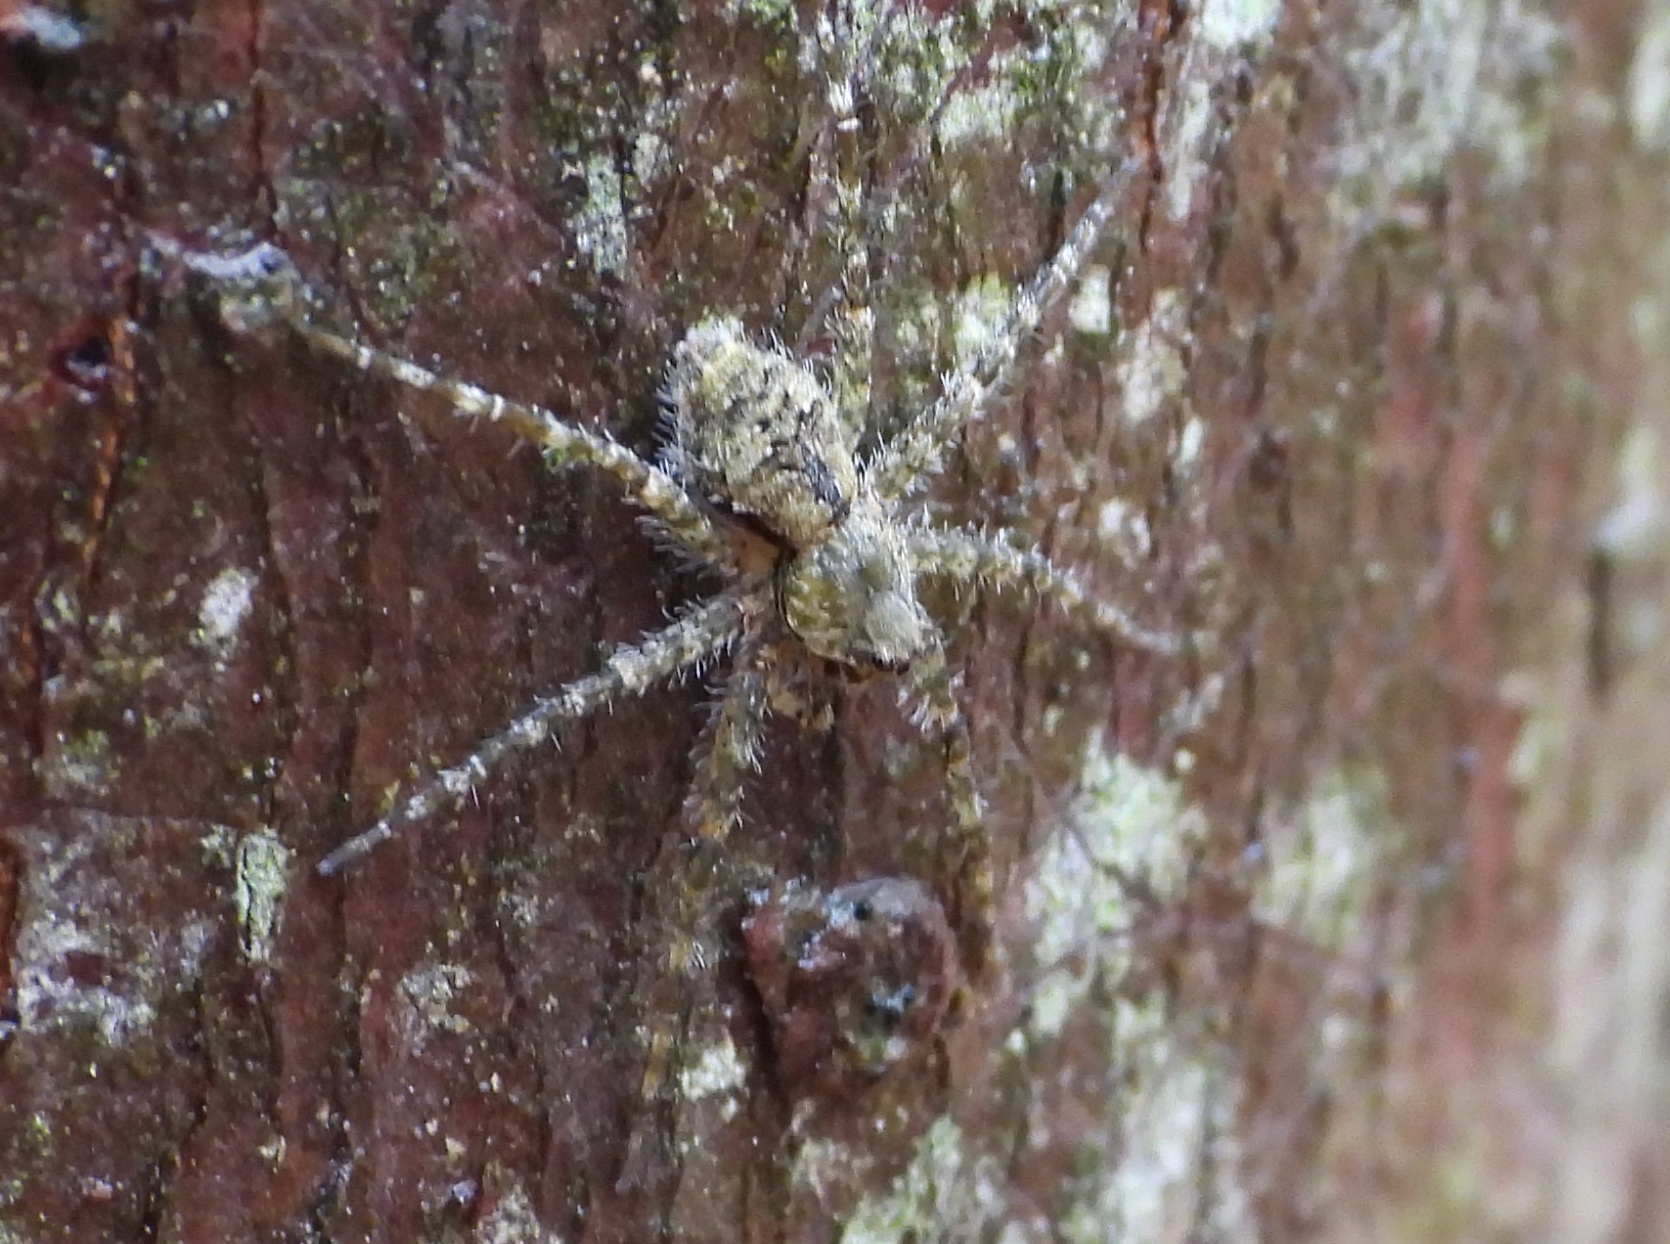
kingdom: Animalia
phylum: Arthropoda
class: Arachnida
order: Araneae
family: Pisauridae
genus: Dolomedes
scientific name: Dolomedes albineus
